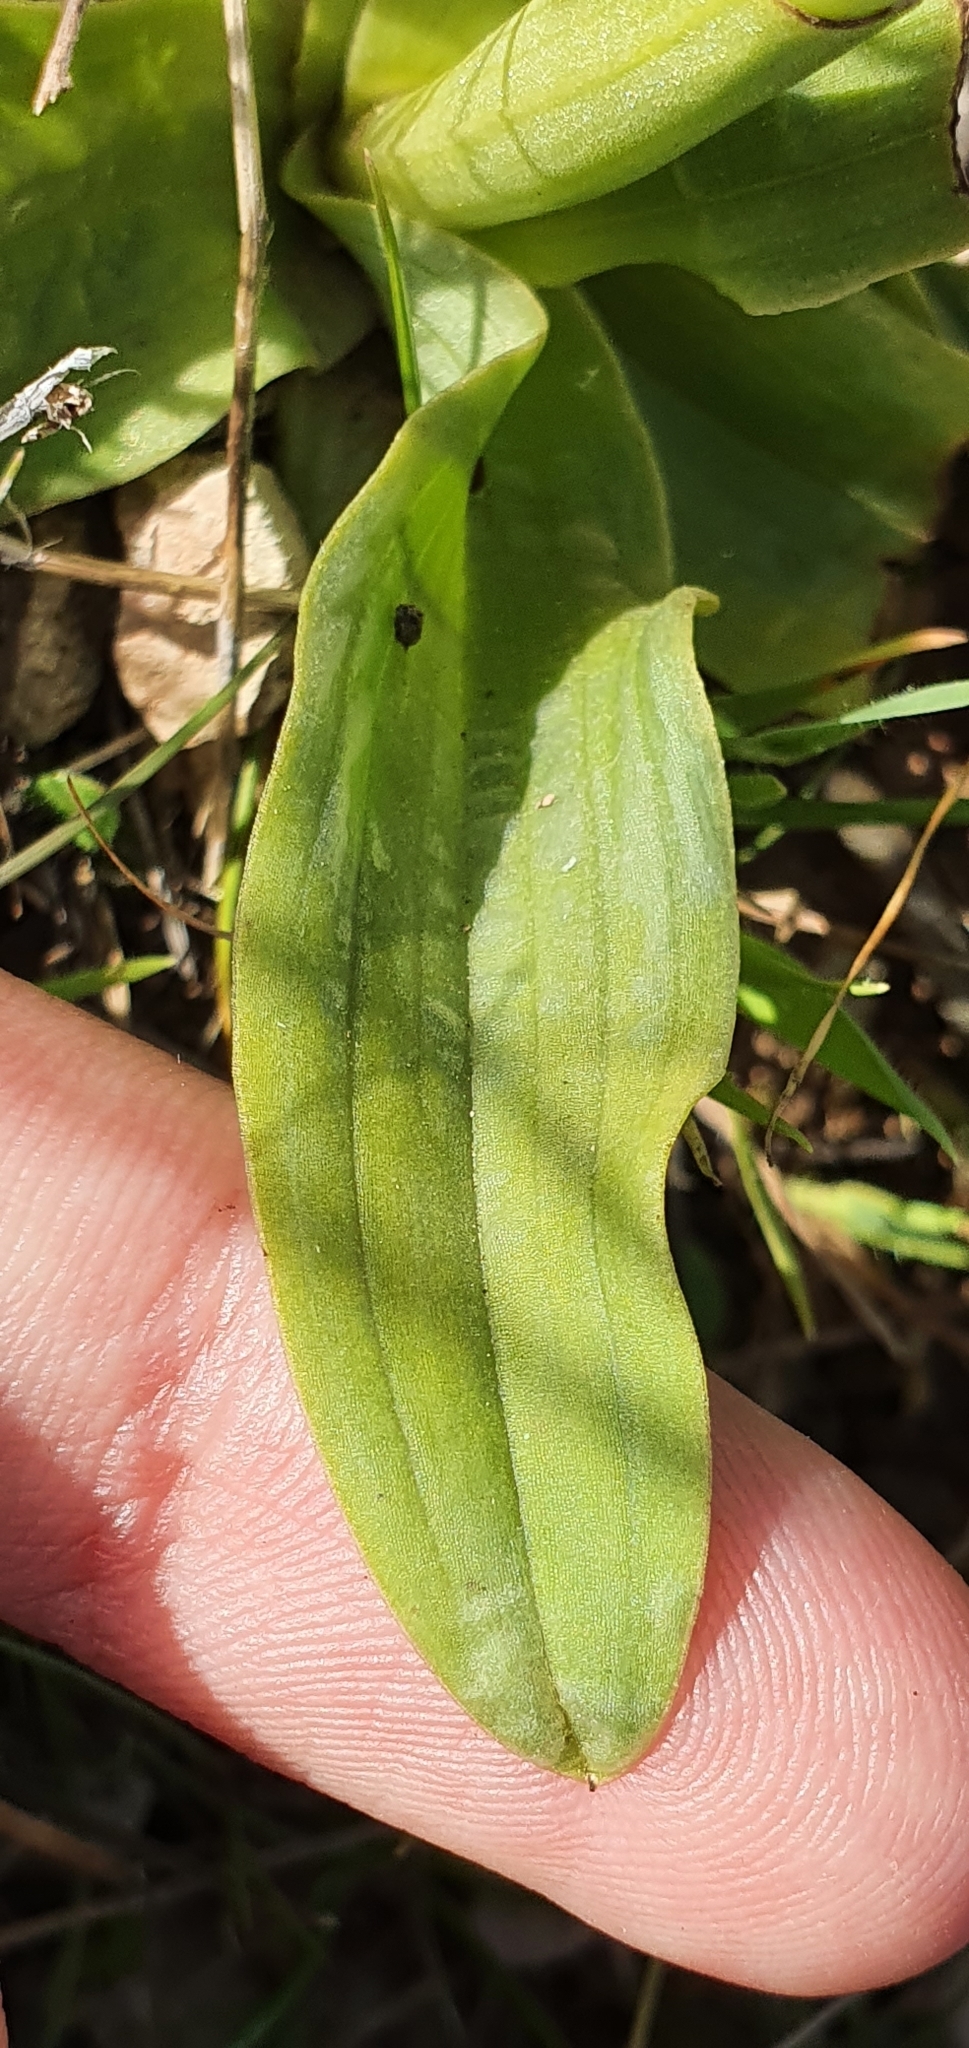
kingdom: Plantae
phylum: Tracheophyta
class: Liliopsida
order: Asparagales
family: Orchidaceae
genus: Orchis
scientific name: Orchis anthropophora
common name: Man orchid
